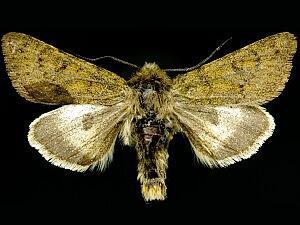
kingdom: Animalia
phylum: Arthropoda
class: Insecta
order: Lepidoptera
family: Noctuidae
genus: Lasionycta
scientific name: Lasionycta quadrilunata
